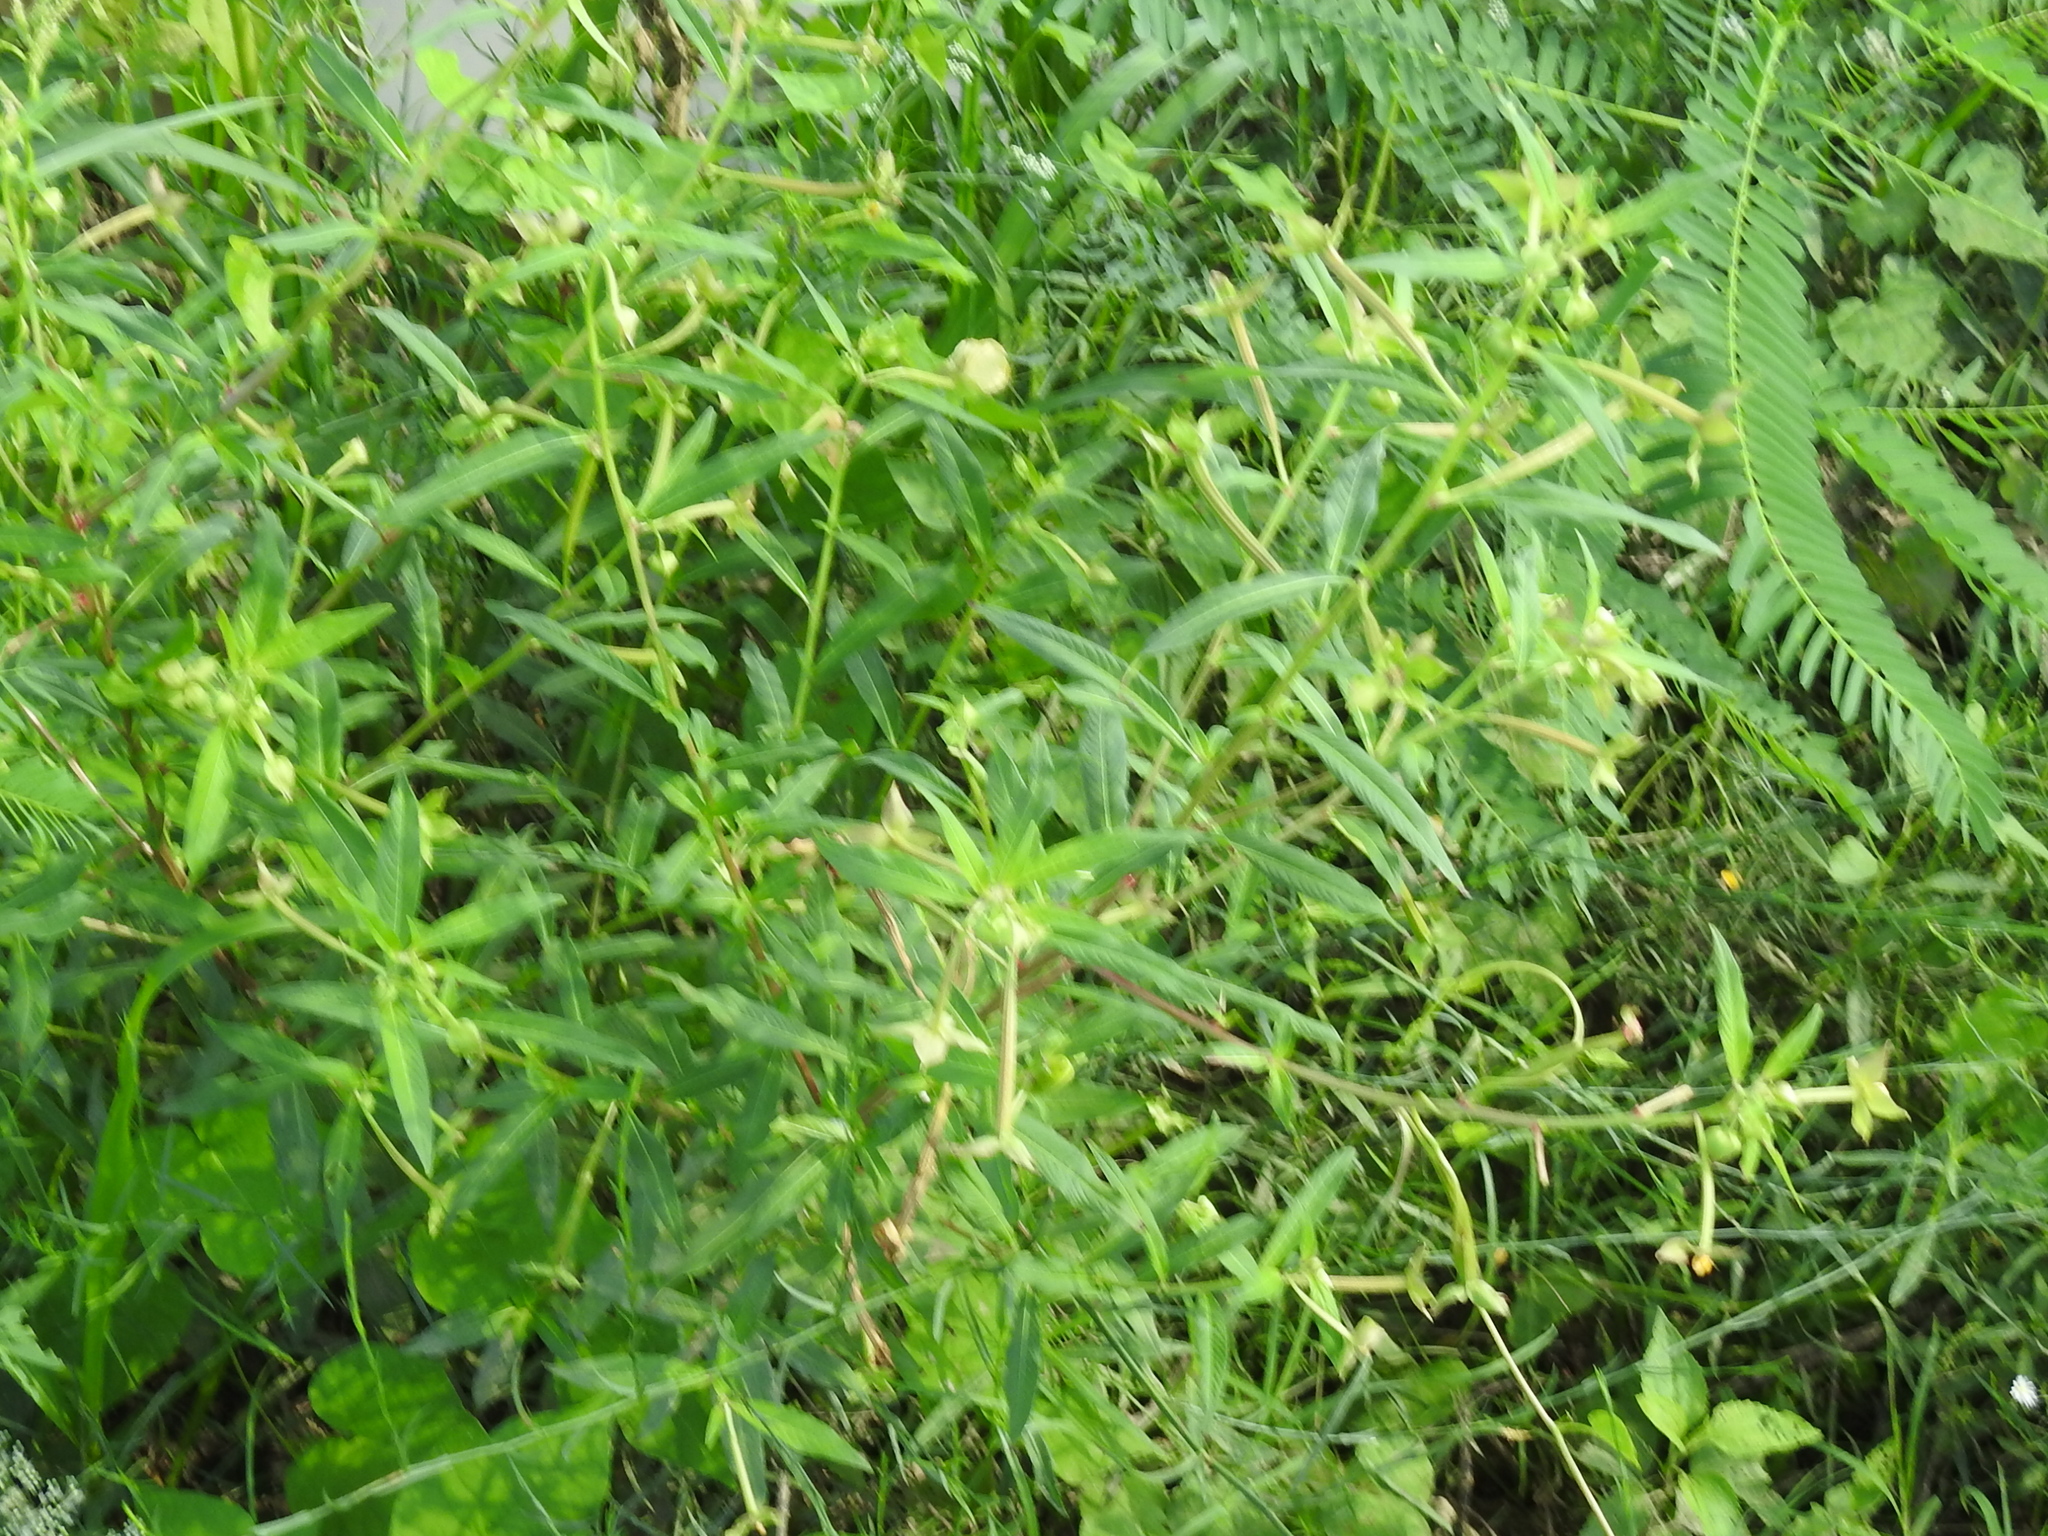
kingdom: Plantae
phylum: Tracheophyta
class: Magnoliopsida
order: Myrtales
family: Onagraceae
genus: Ludwigia
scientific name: Ludwigia octovalvis
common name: Water-primrose
